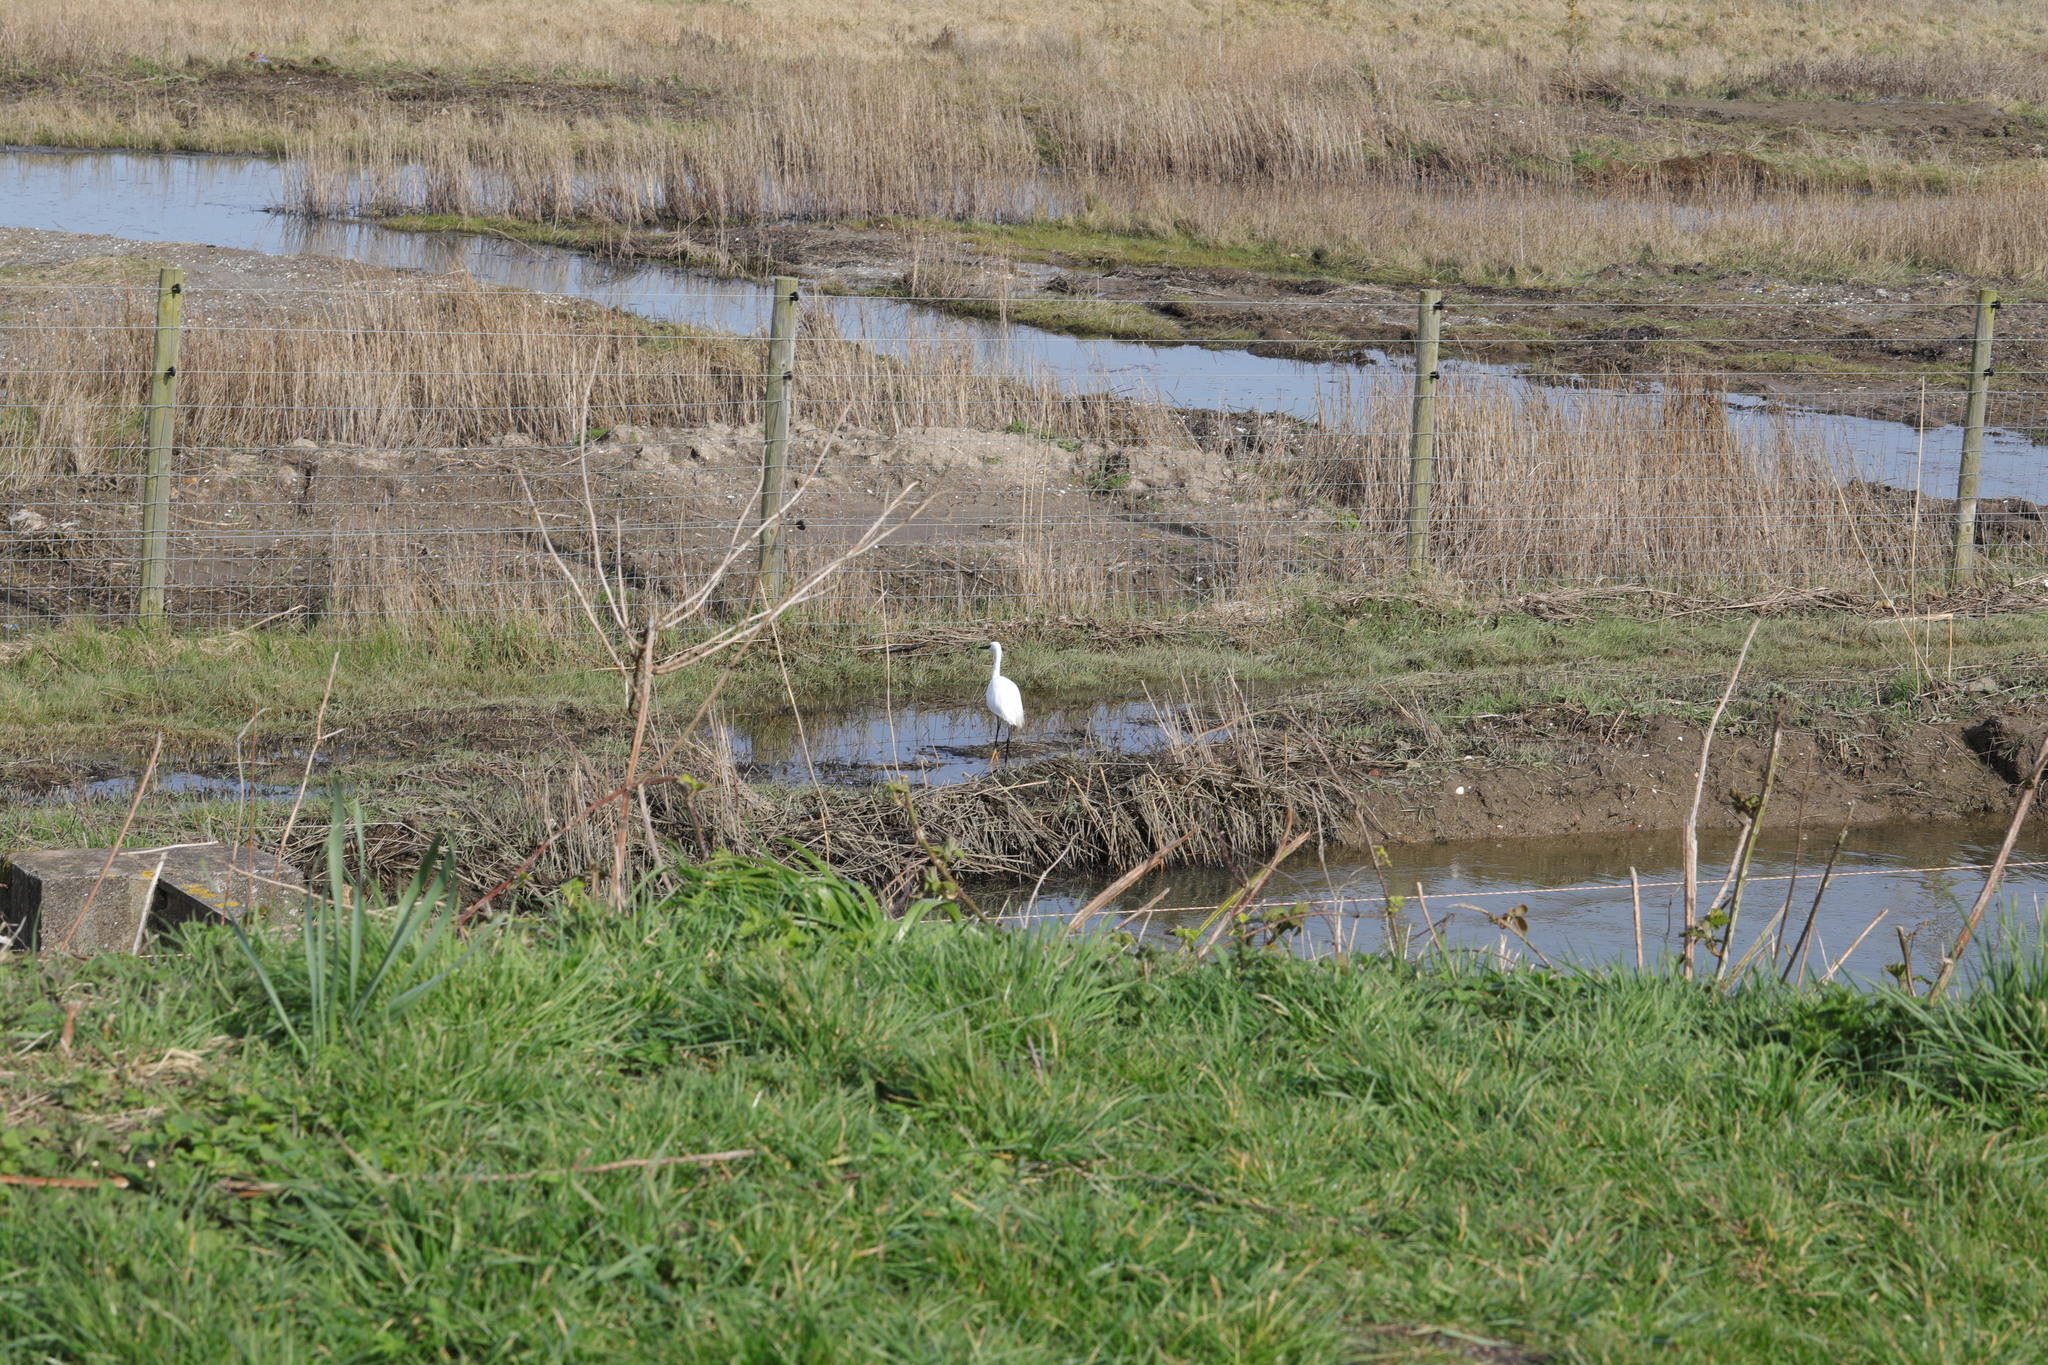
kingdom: Animalia
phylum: Chordata
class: Aves
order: Pelecaniformes
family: Ardeidae
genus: Egretta
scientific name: Egretta garzetta
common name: Little egret
